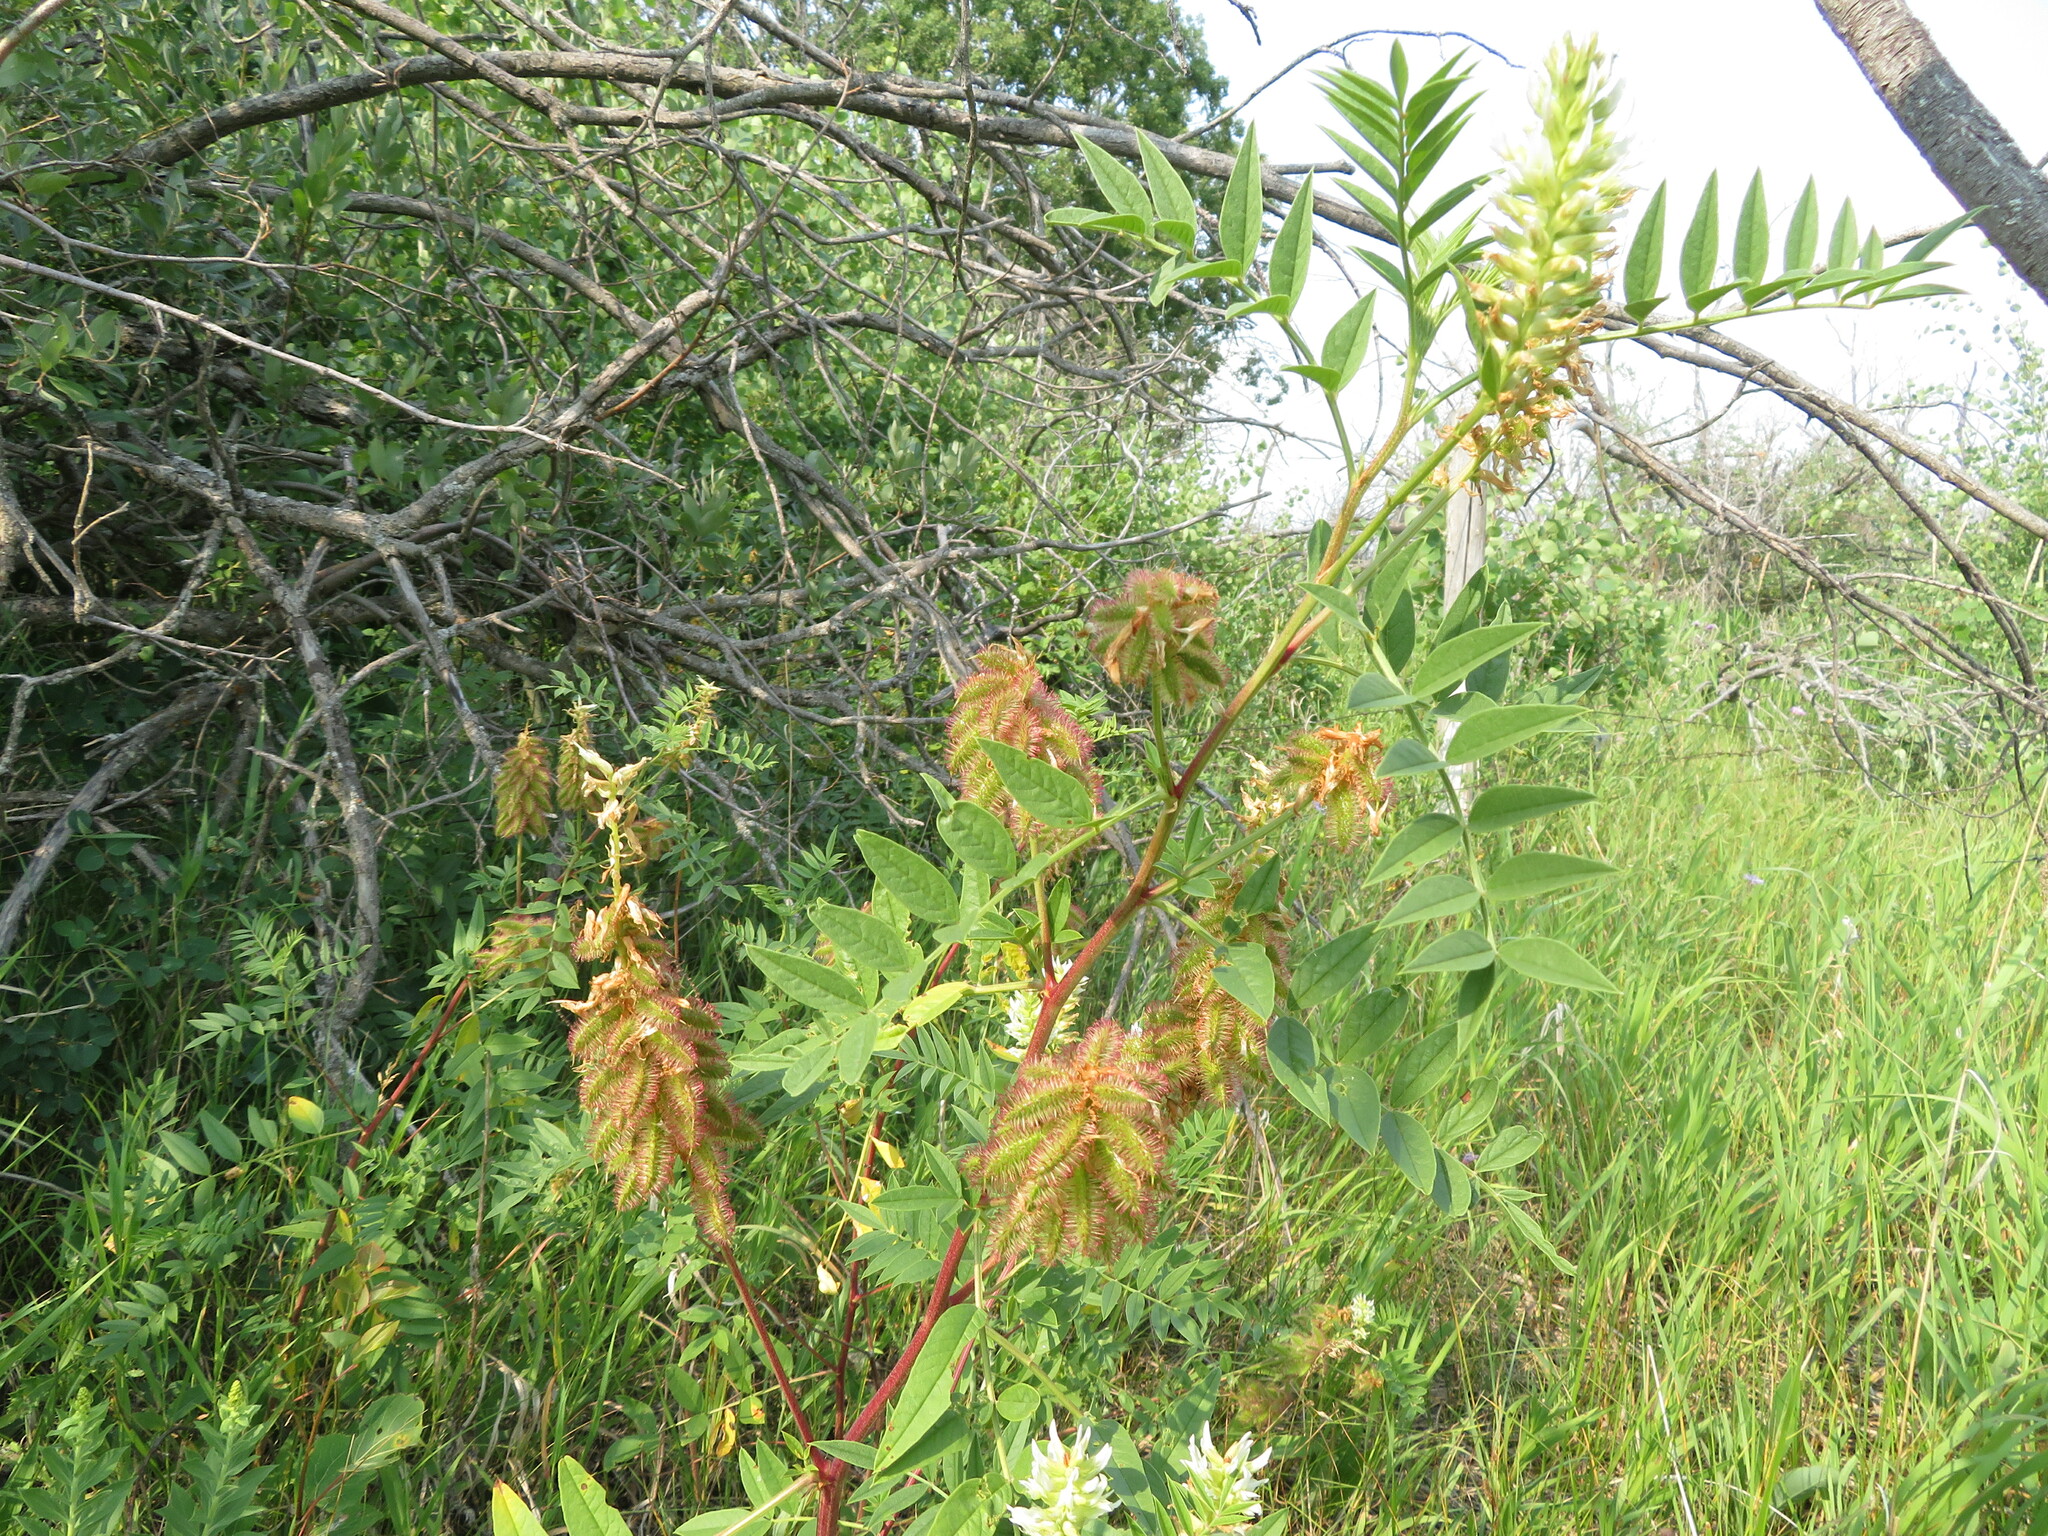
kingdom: Plantae
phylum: Tracheophyta
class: Magnoliopsida
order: Fabales
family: Fabaceae
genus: Glycyrrhiza
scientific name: Glycyrrhiza lepidota
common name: American liquorice
